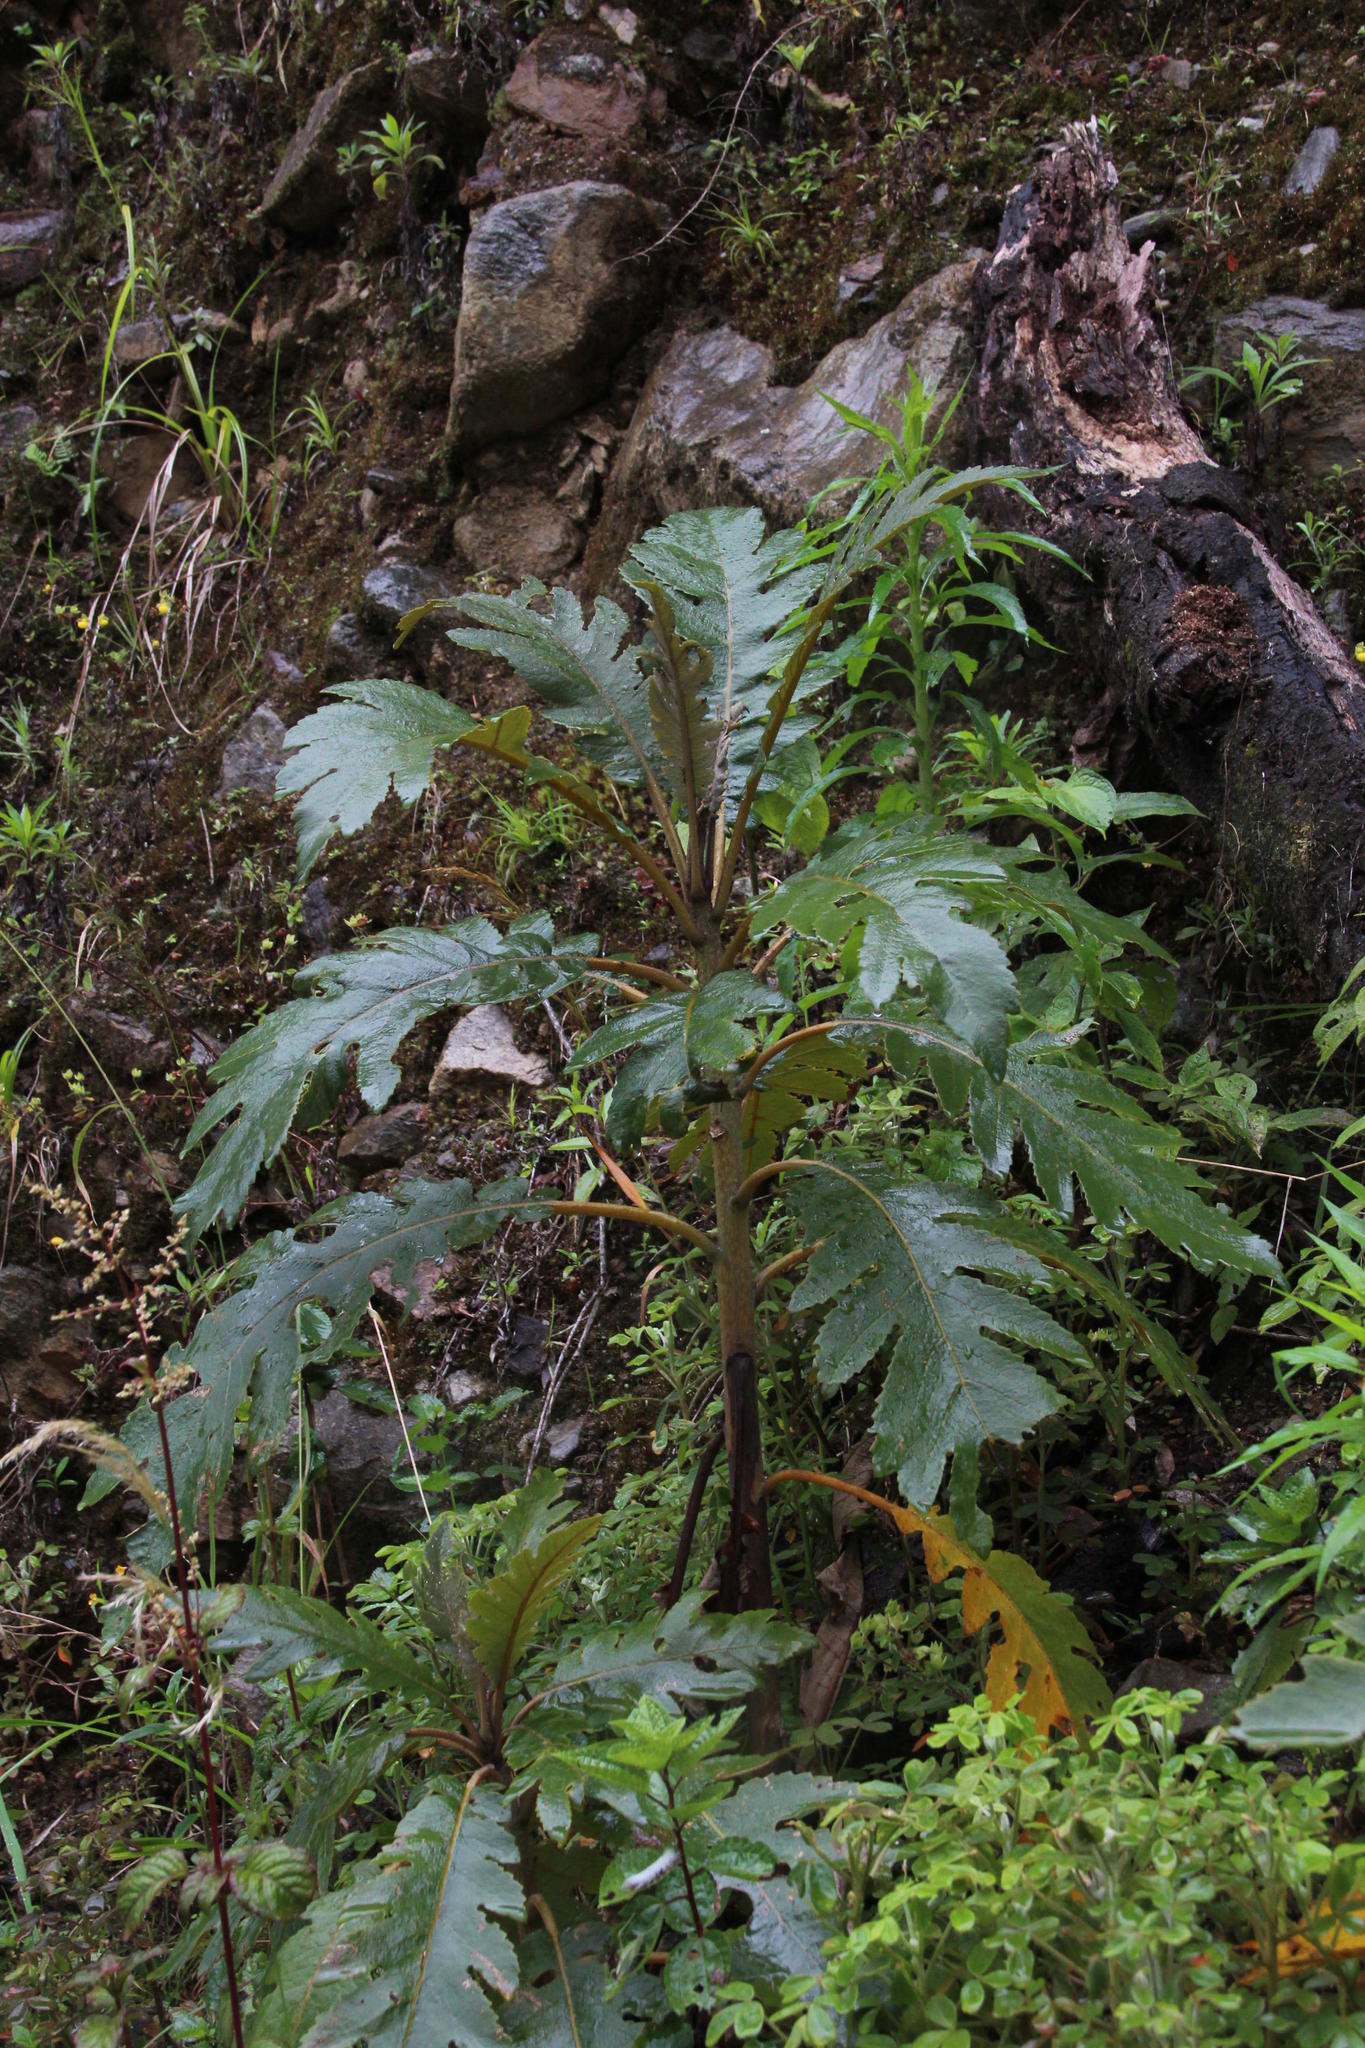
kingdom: Plantae
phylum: Tracheophyta
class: Magnoliopsida
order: Ranunculales
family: Papaveraceae
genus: Bocconia
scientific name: Bocconia frutescens
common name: Tree poppy
